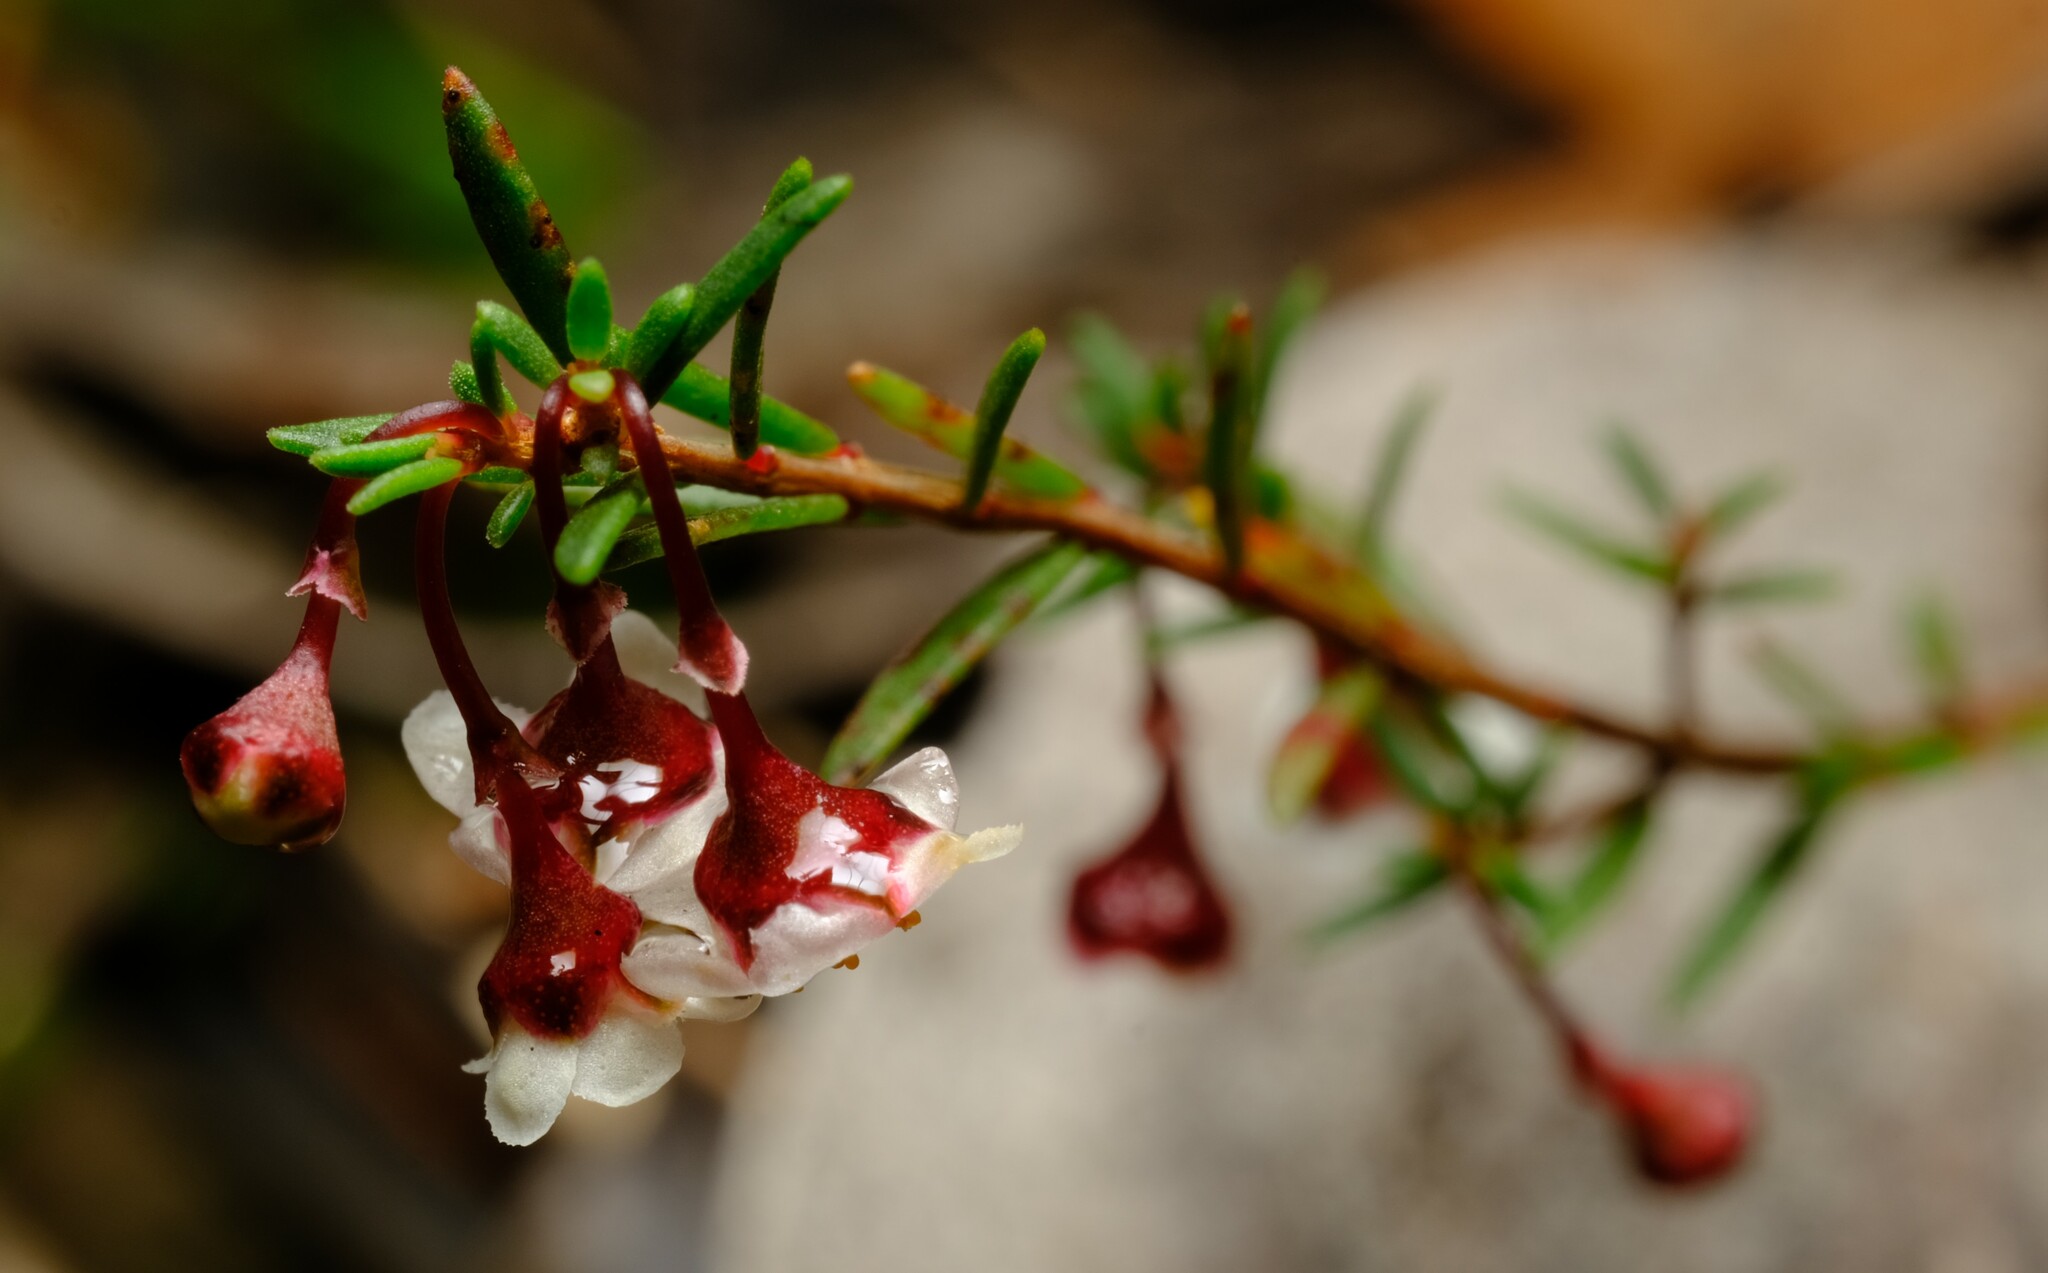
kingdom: Plantae
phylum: Tracheophyta
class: Magnoliopsida
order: Myrtales
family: Myrtaceae
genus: Euryomyrtus
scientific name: Euryomyrtus ramosissima
